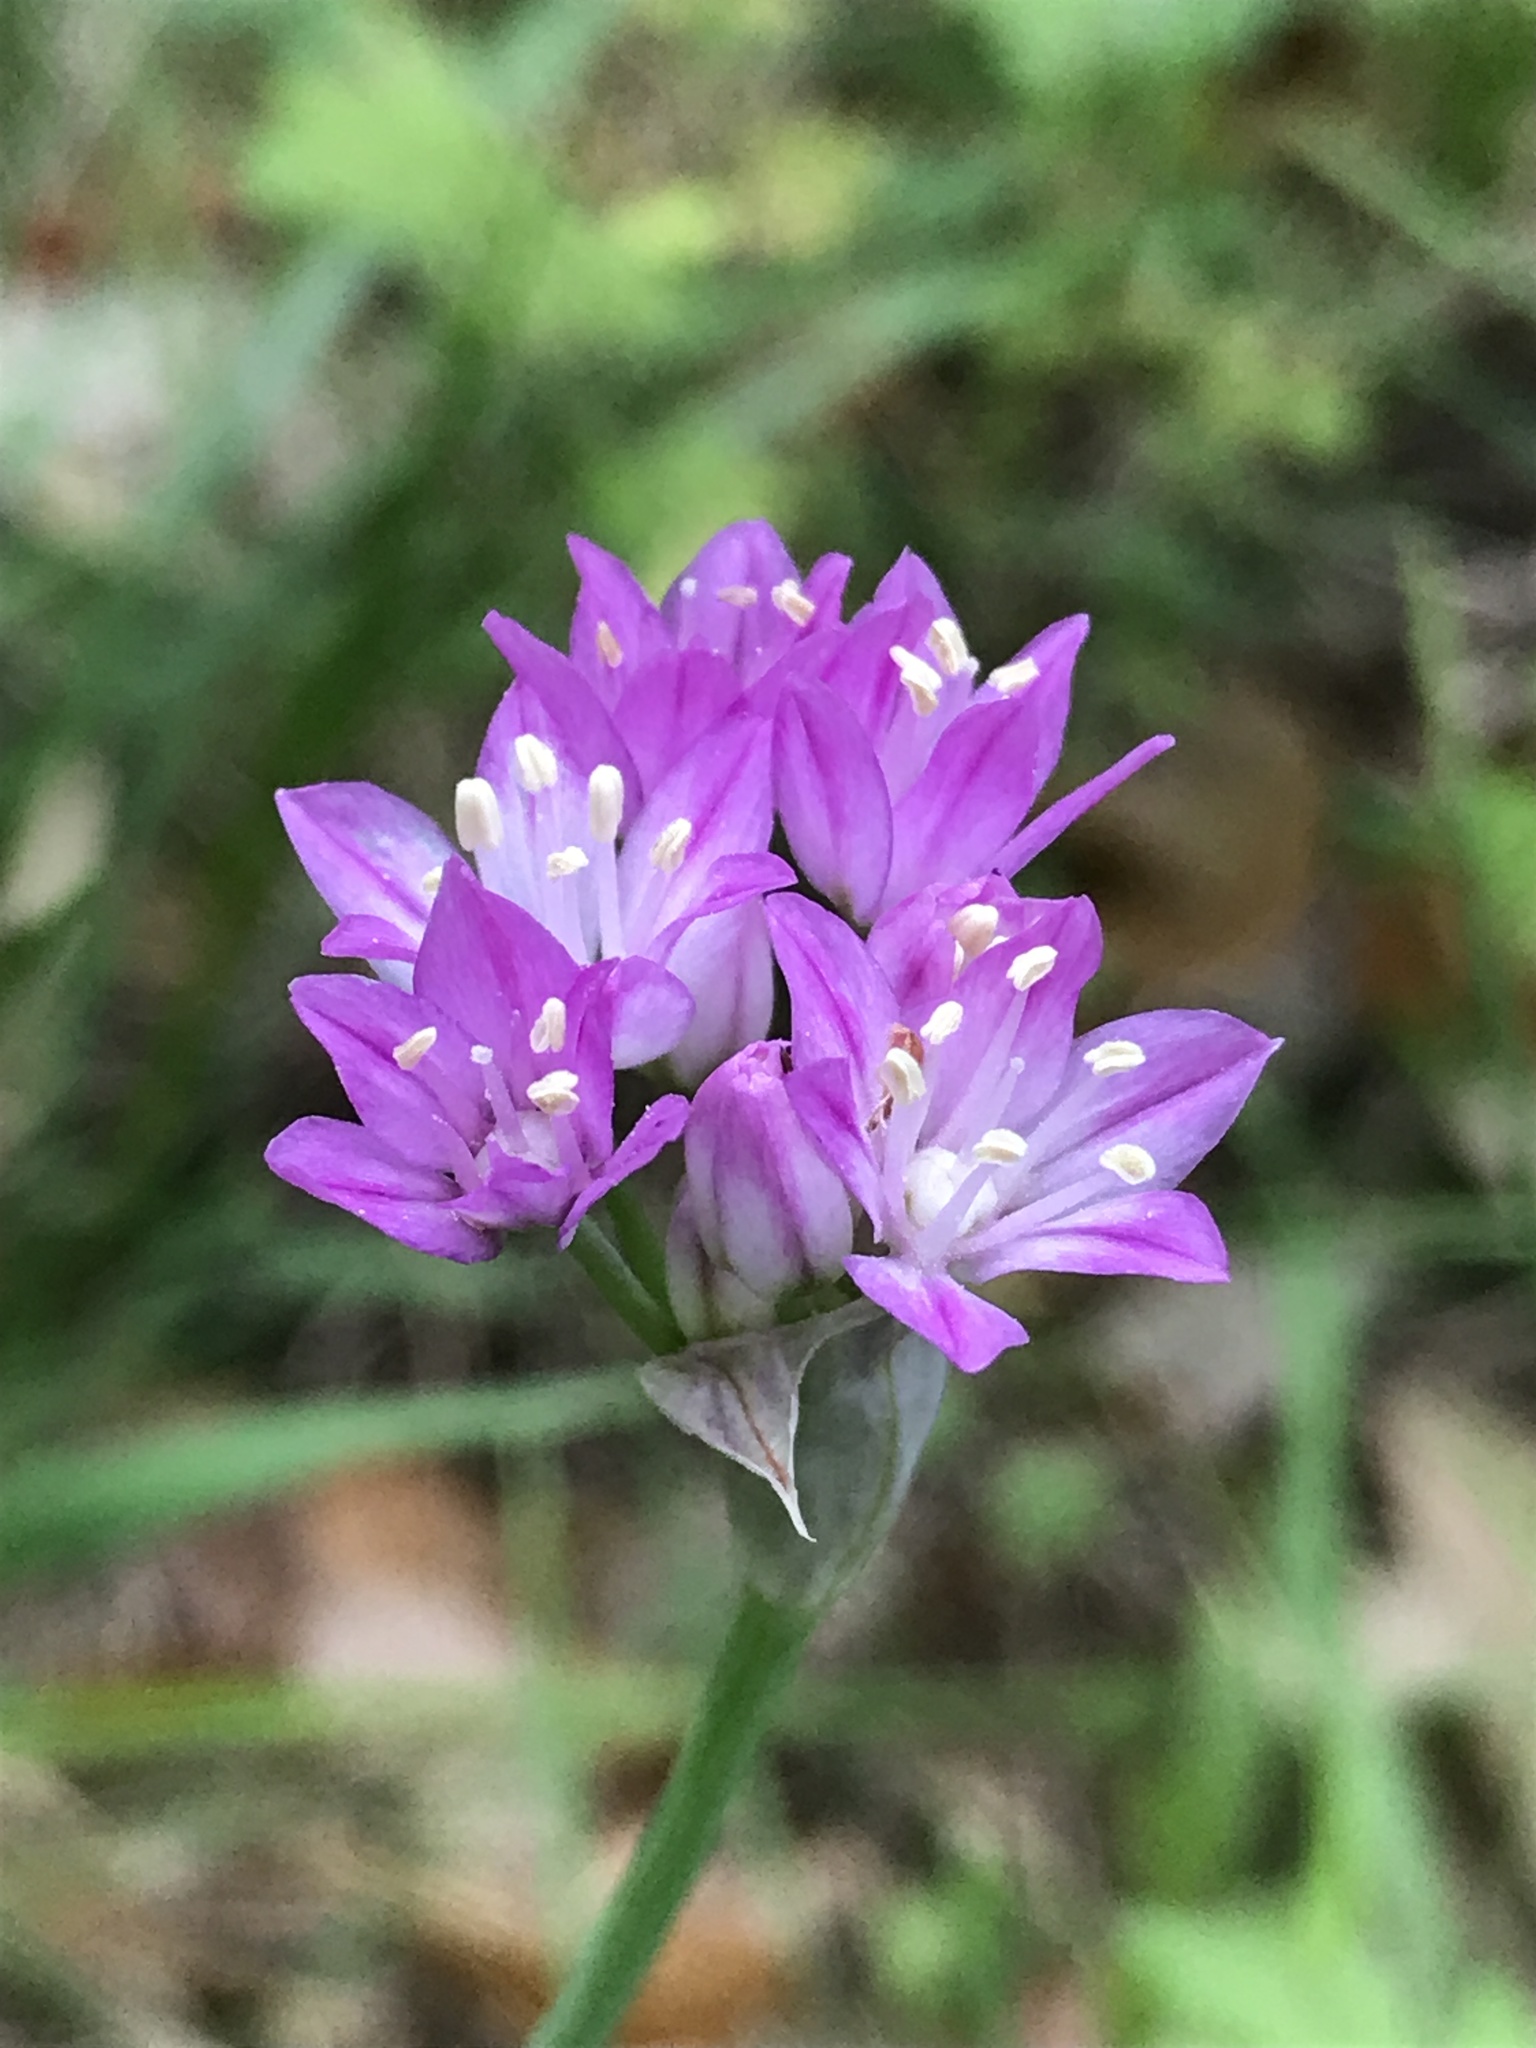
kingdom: Plantae
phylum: Tracheophyta
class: Liliopsida
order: Asparagales
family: Amaryllidaceae
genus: Allium
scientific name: Allium drummondii
